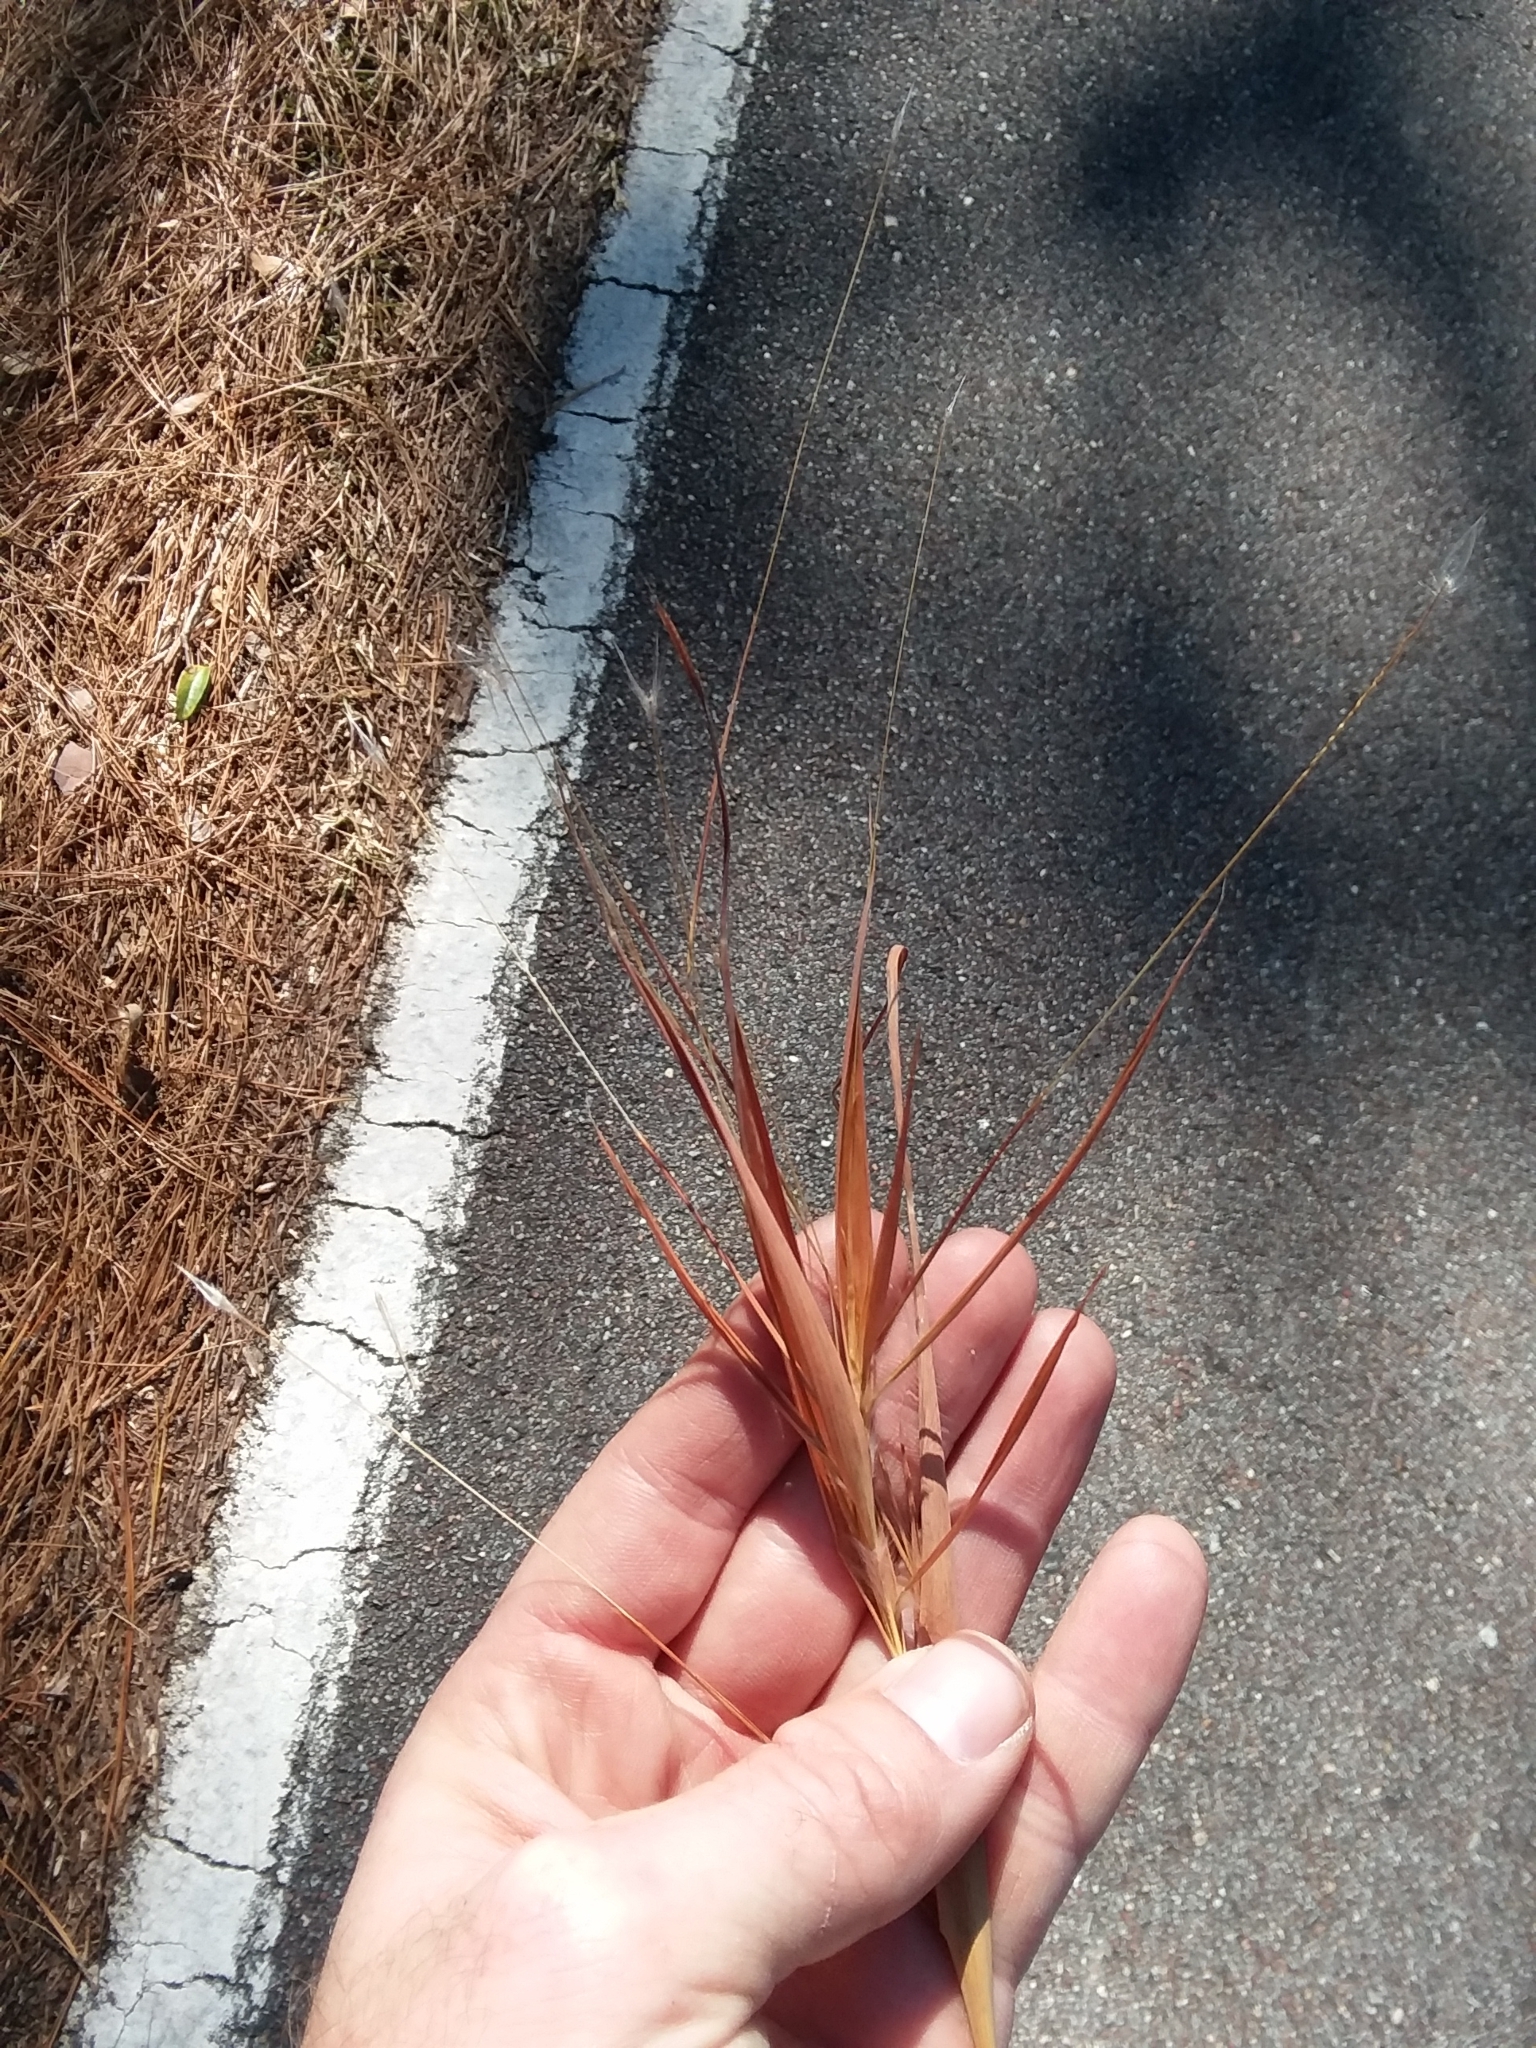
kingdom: Plantae
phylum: Tracheophyta
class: Liliopsida
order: Poales
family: Poaceae
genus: Andropogon
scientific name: Andropogon gyrans
